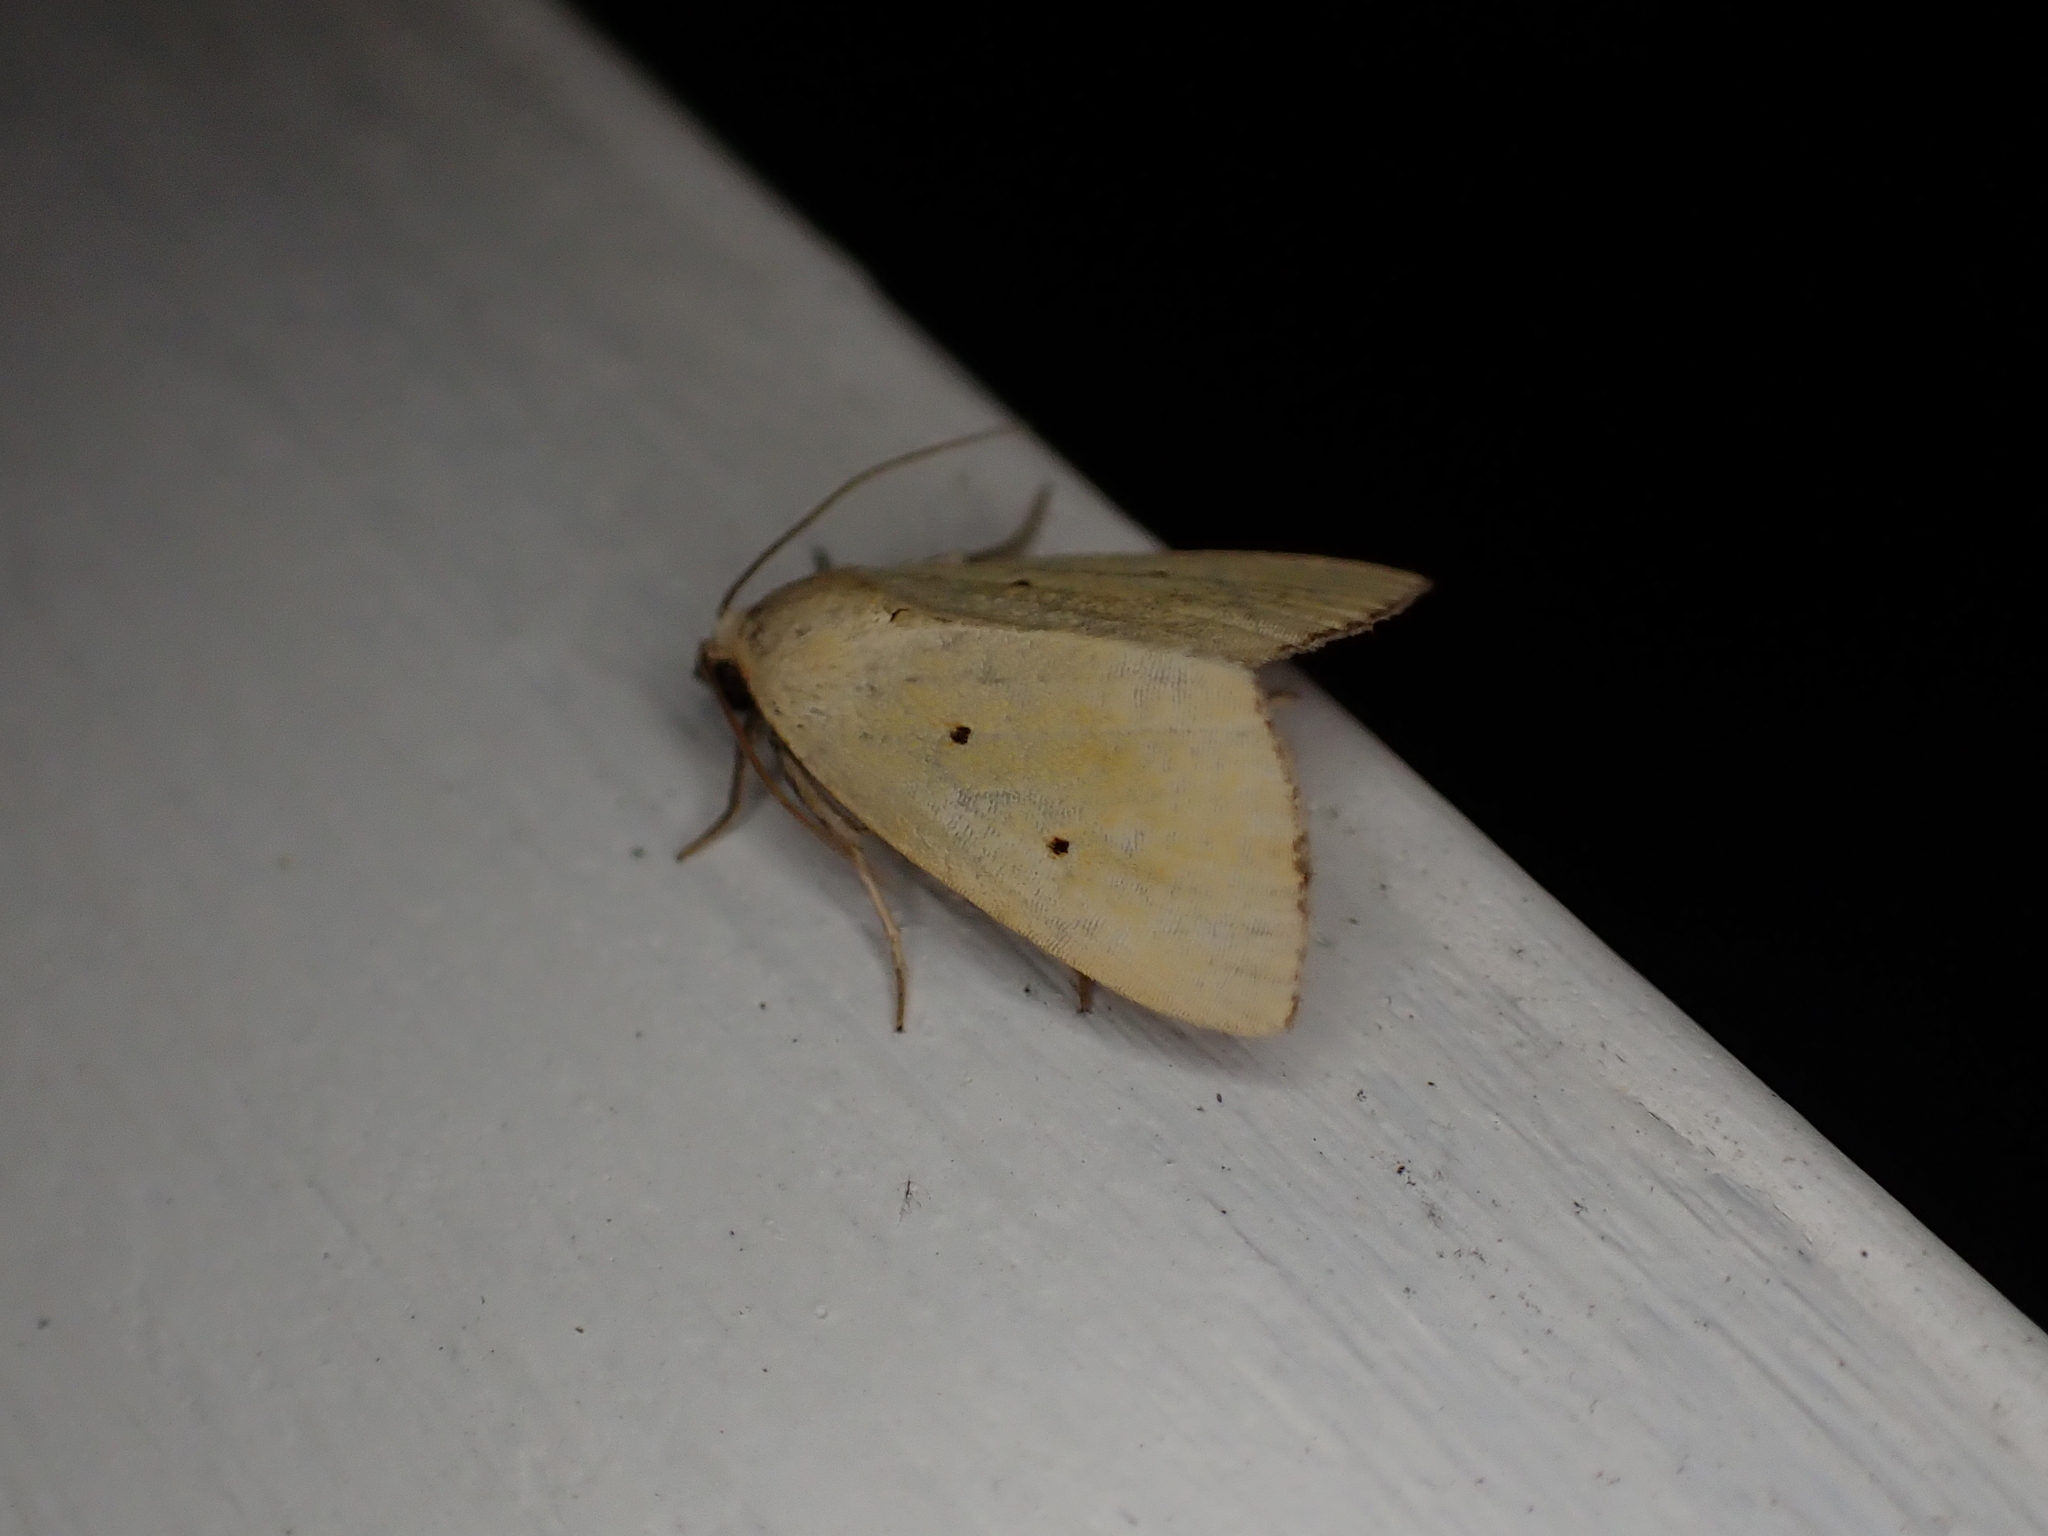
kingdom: Animalia
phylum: Arthropoda
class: Insecta
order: Lepidoptera
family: Noctuidae
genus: Marimatha
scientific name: Marimatha nigrofimbria
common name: Black-bordered lemon moth
